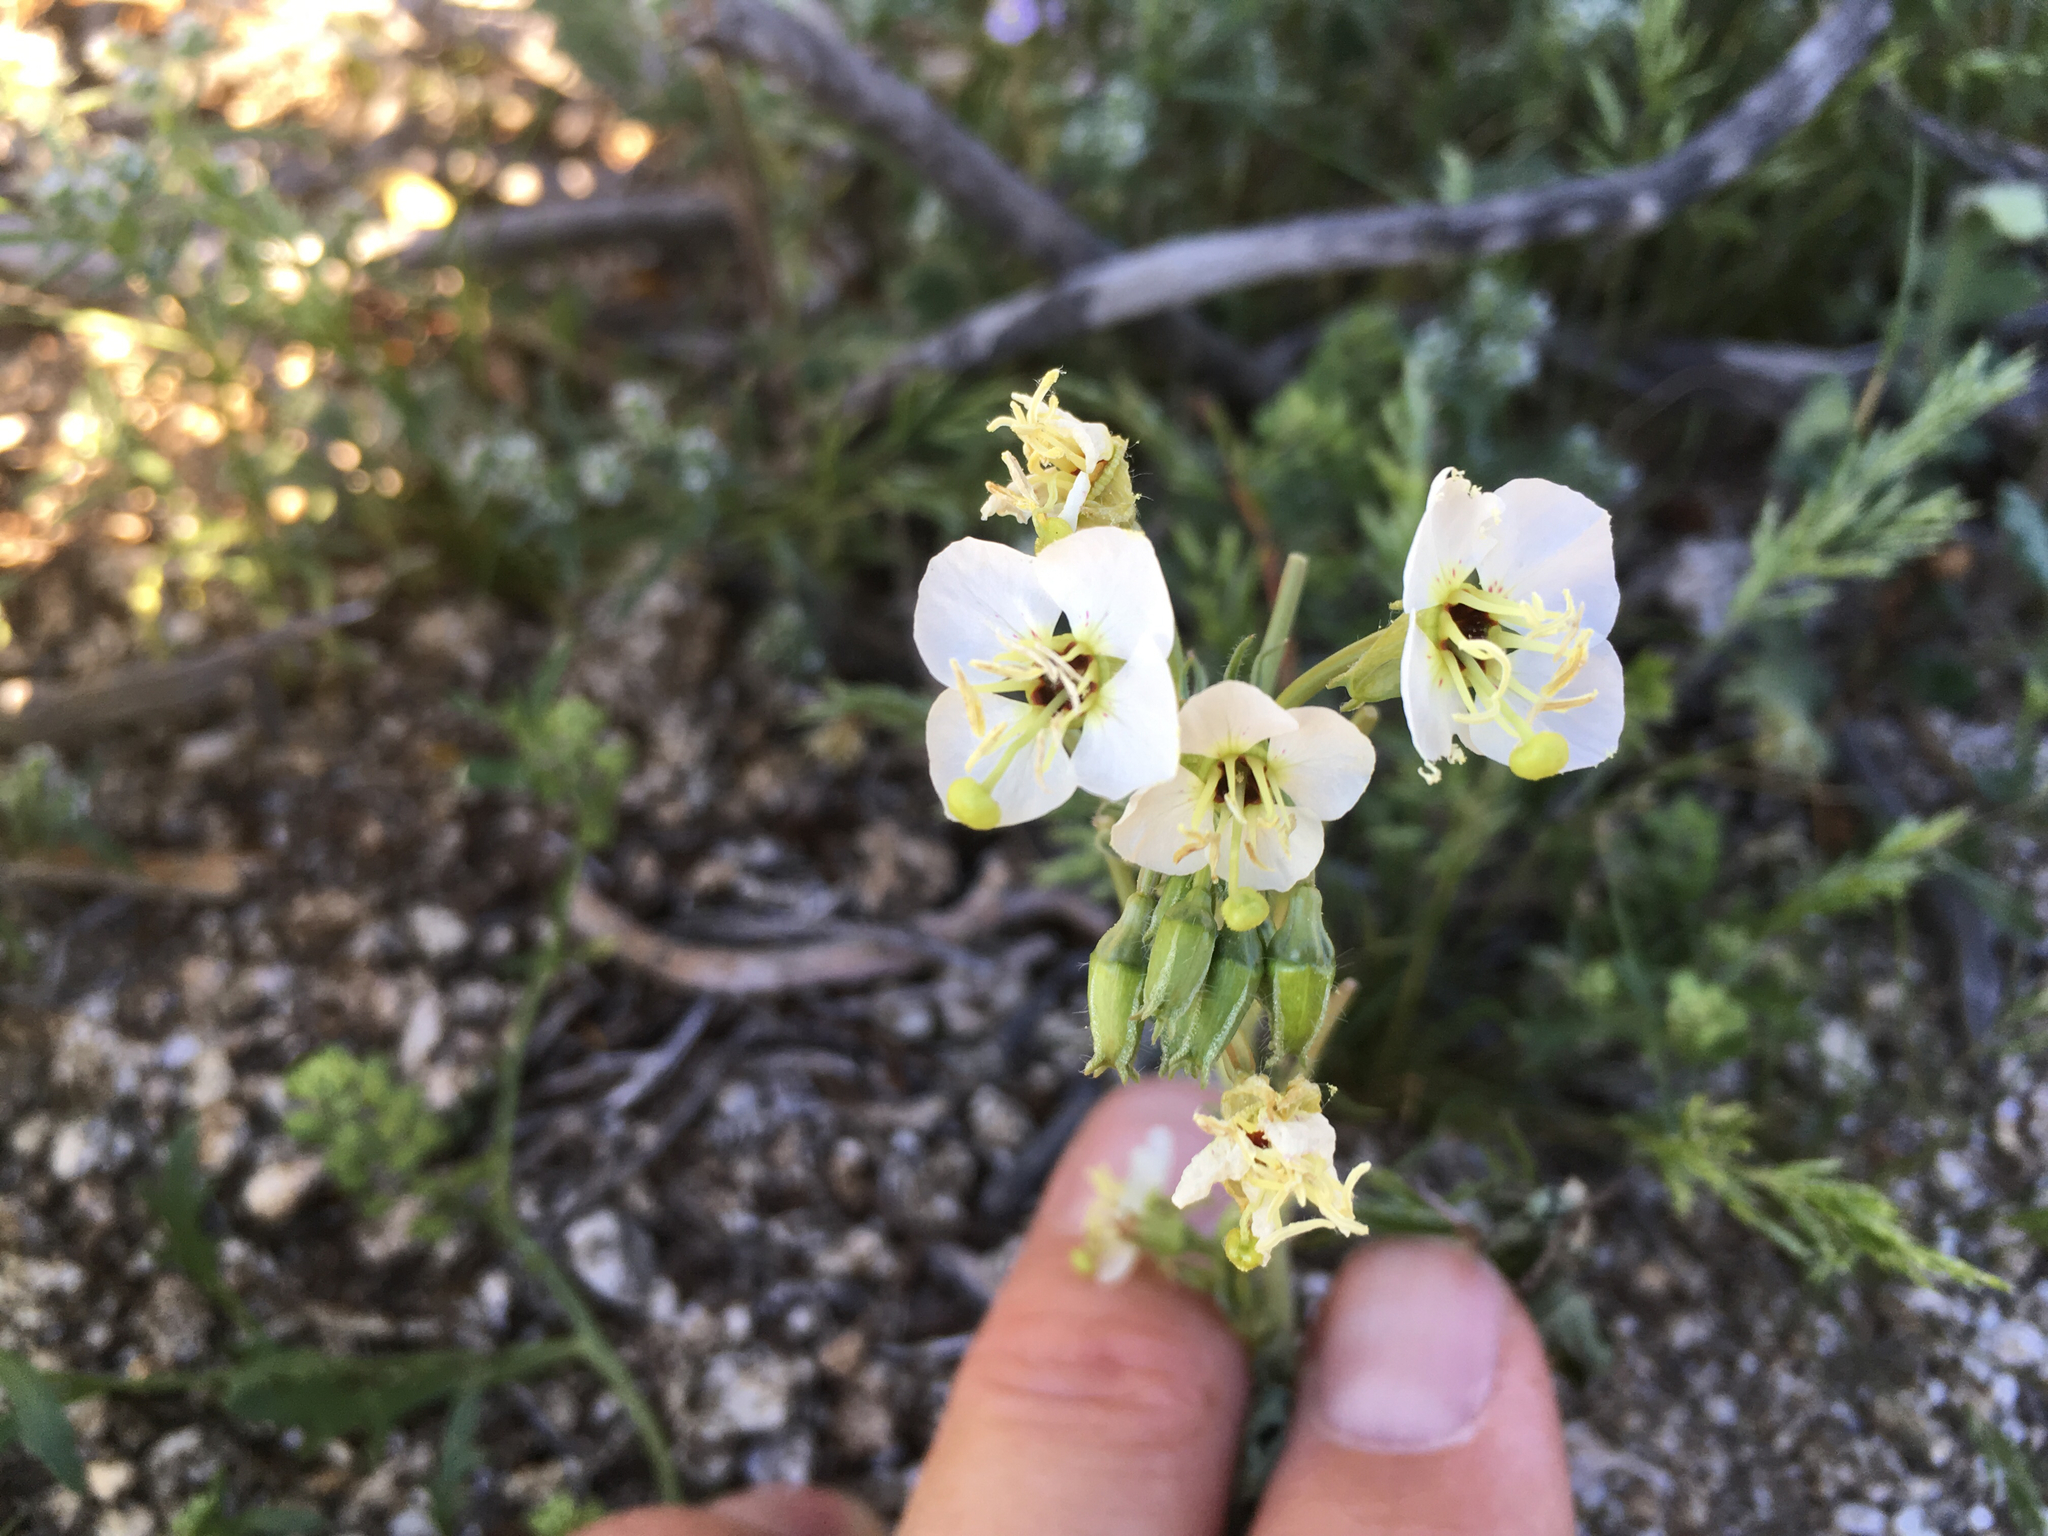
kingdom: Plantae
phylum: Tracheophyta
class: Magnoliopsida
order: Myrtales
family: Onagraceae
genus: Chylismia
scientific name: Chylismia claviformis
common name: Browneyes
